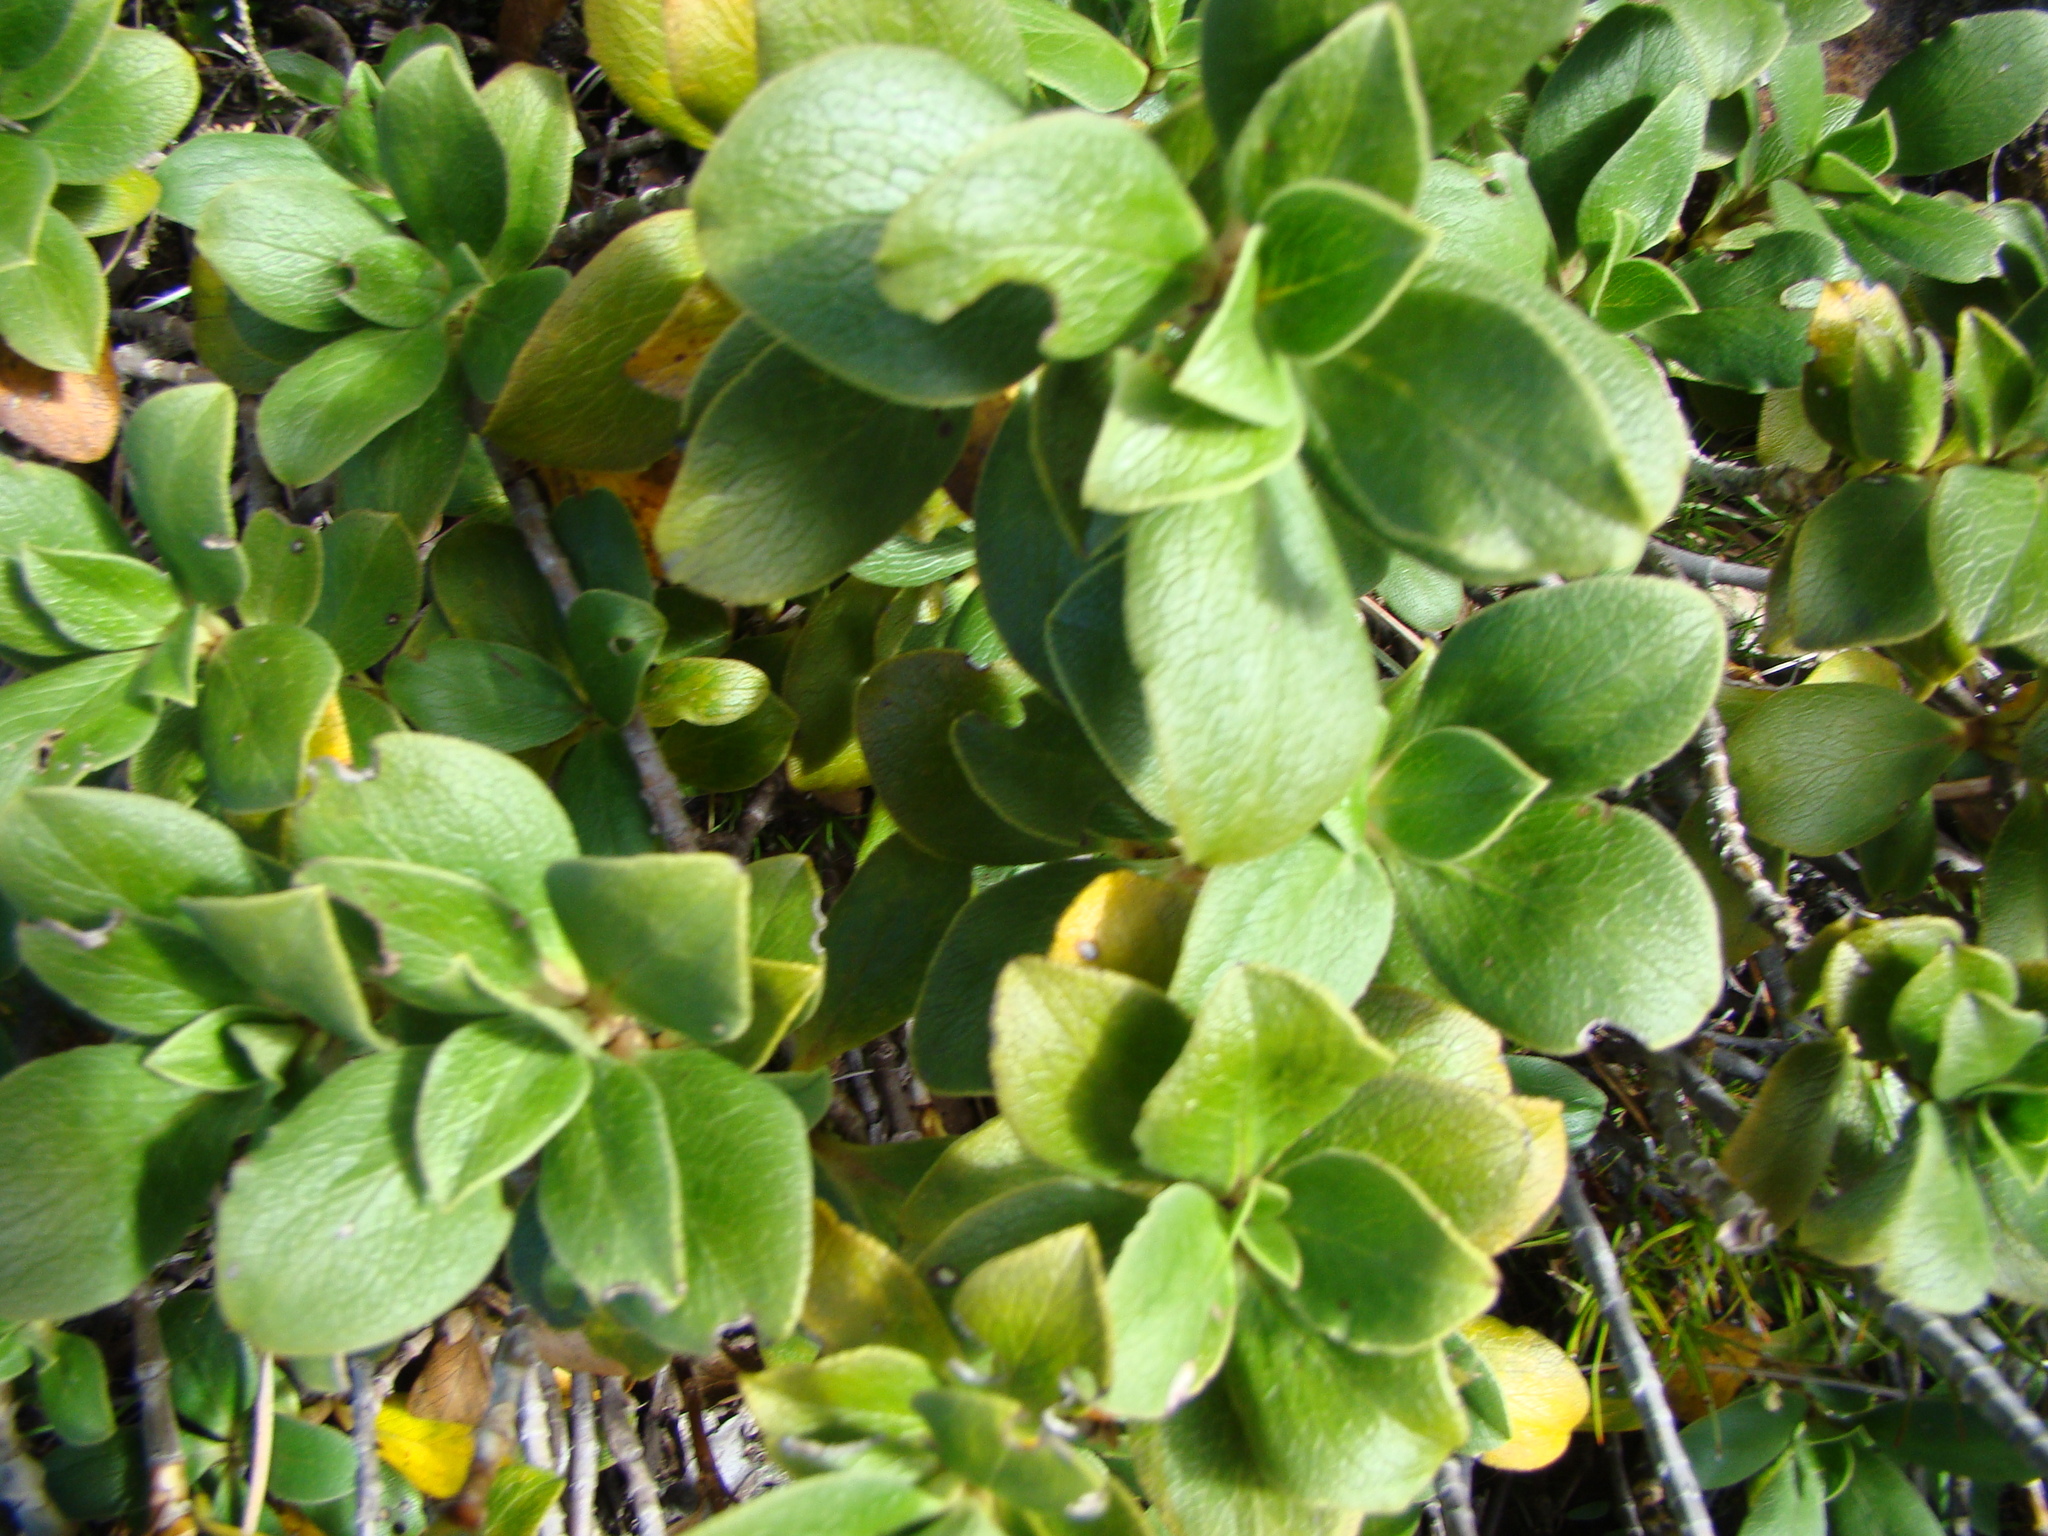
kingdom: Plantae
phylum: Tracheophyta
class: Magnoliopsida
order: Gentianales
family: Rubiaceae
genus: Coprosma
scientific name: Coprosma serrulata
